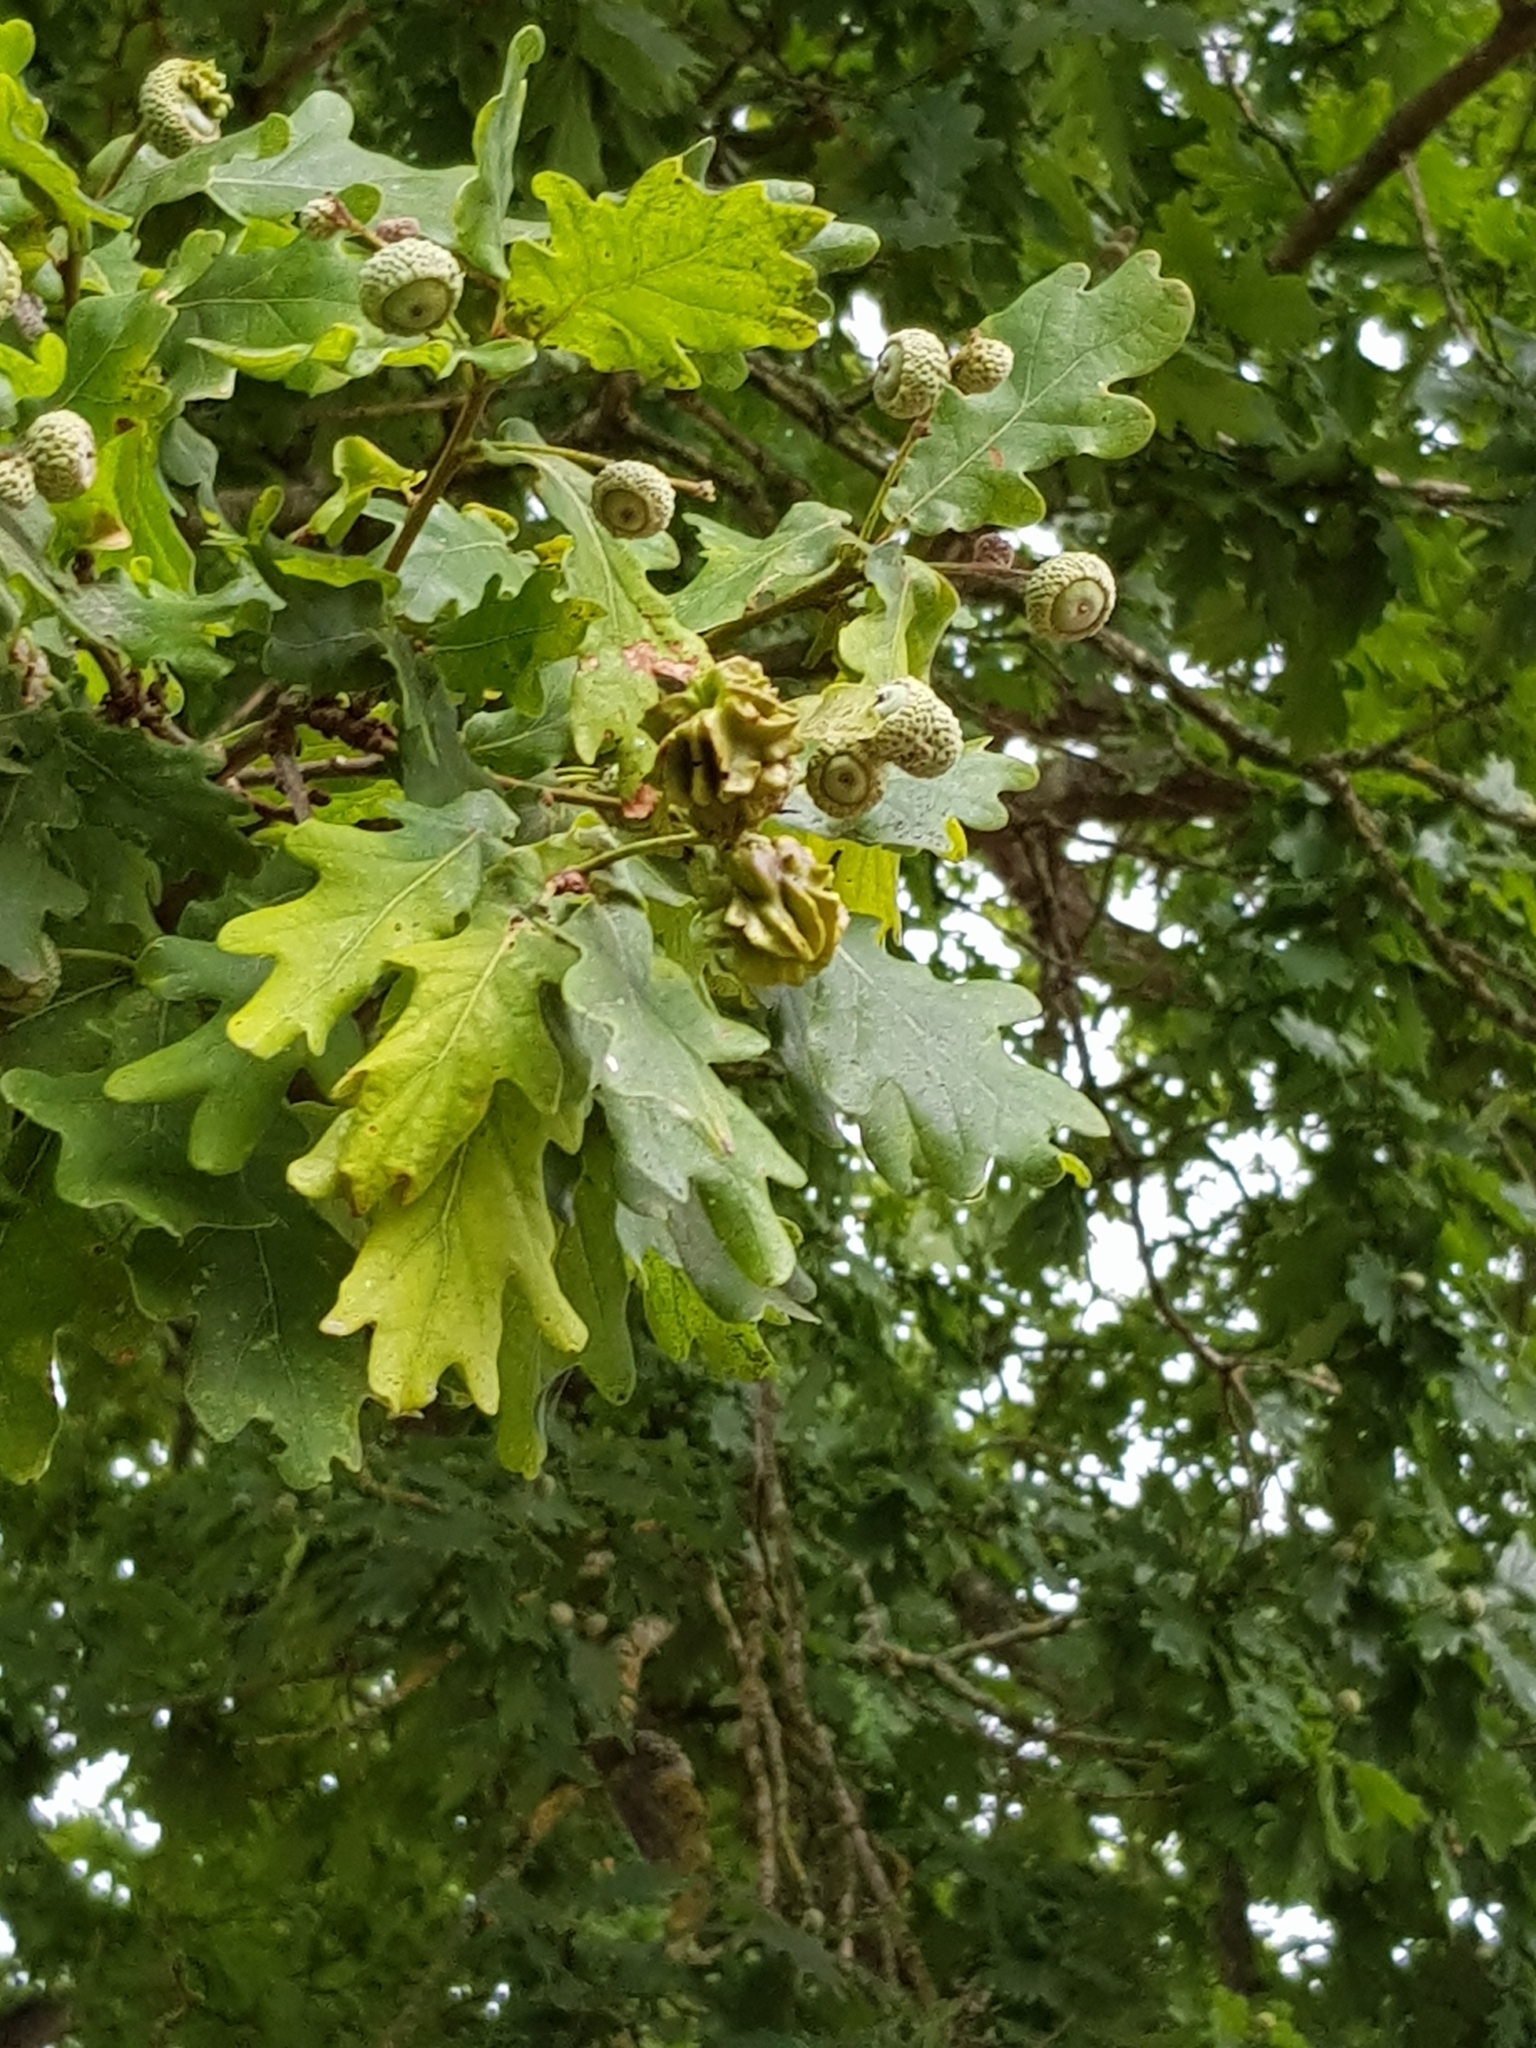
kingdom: Animalia
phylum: Arthropoda
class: Insecta
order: Hymenoptera
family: Cynipidae
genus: Andricus
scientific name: Andricus quercuscalicis
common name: Knopper gall
